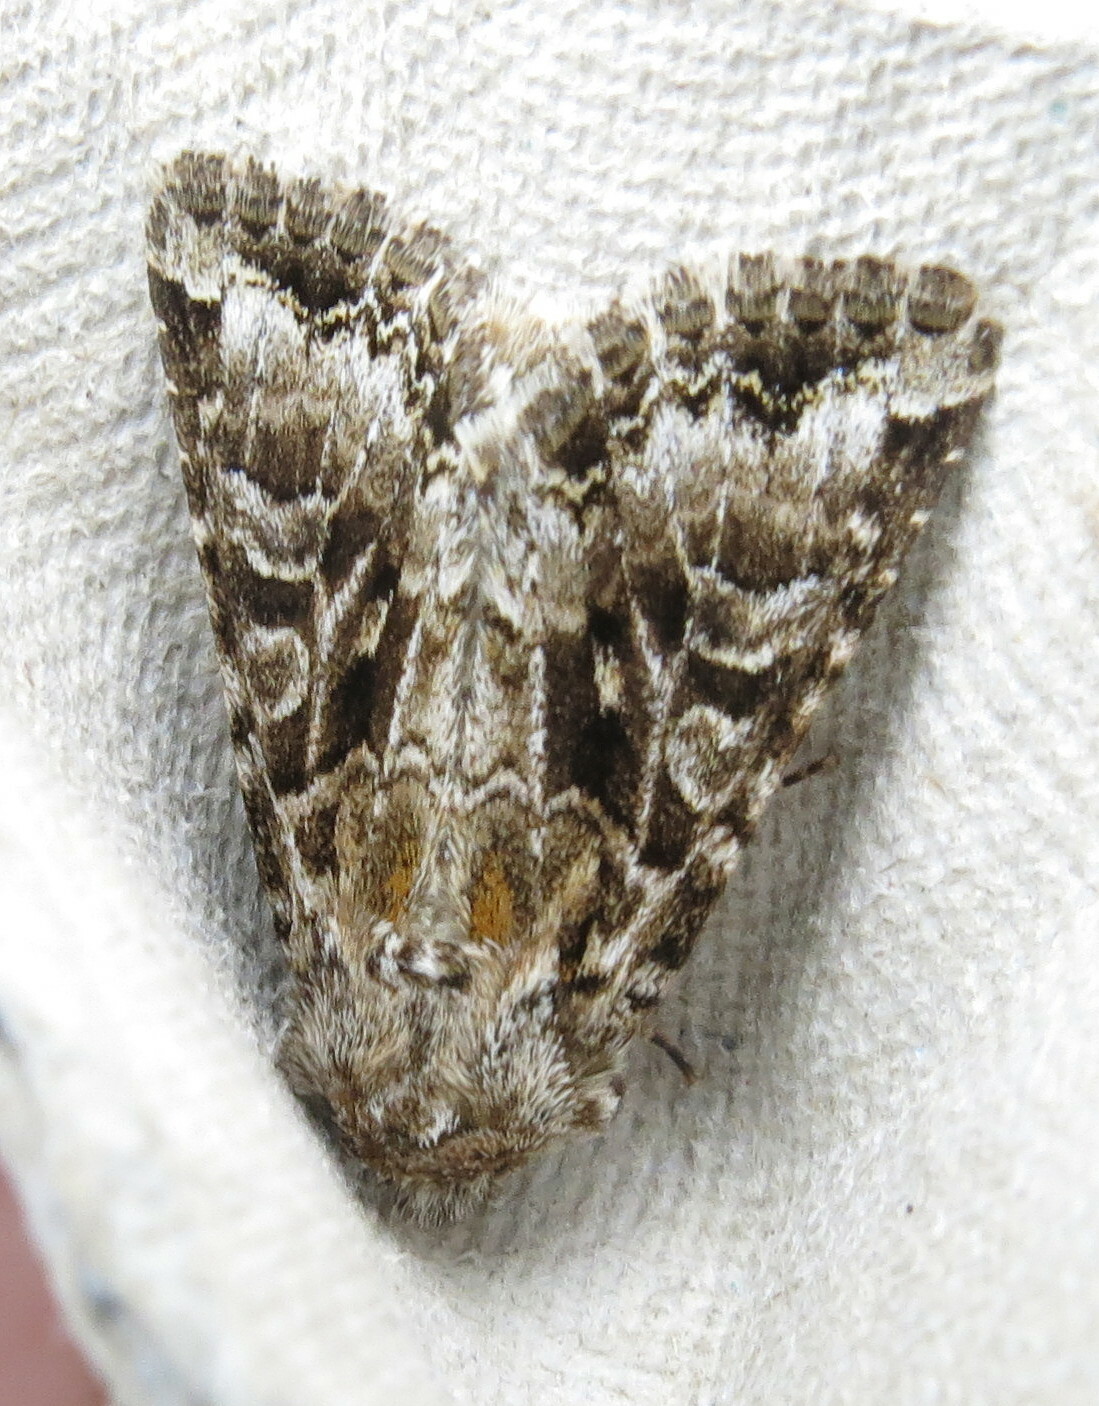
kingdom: Animalia
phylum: Arthropoda
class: Insecta
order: Lepidoptera
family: Noctuidae
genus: Hada
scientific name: Hada plebeja
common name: Shears
